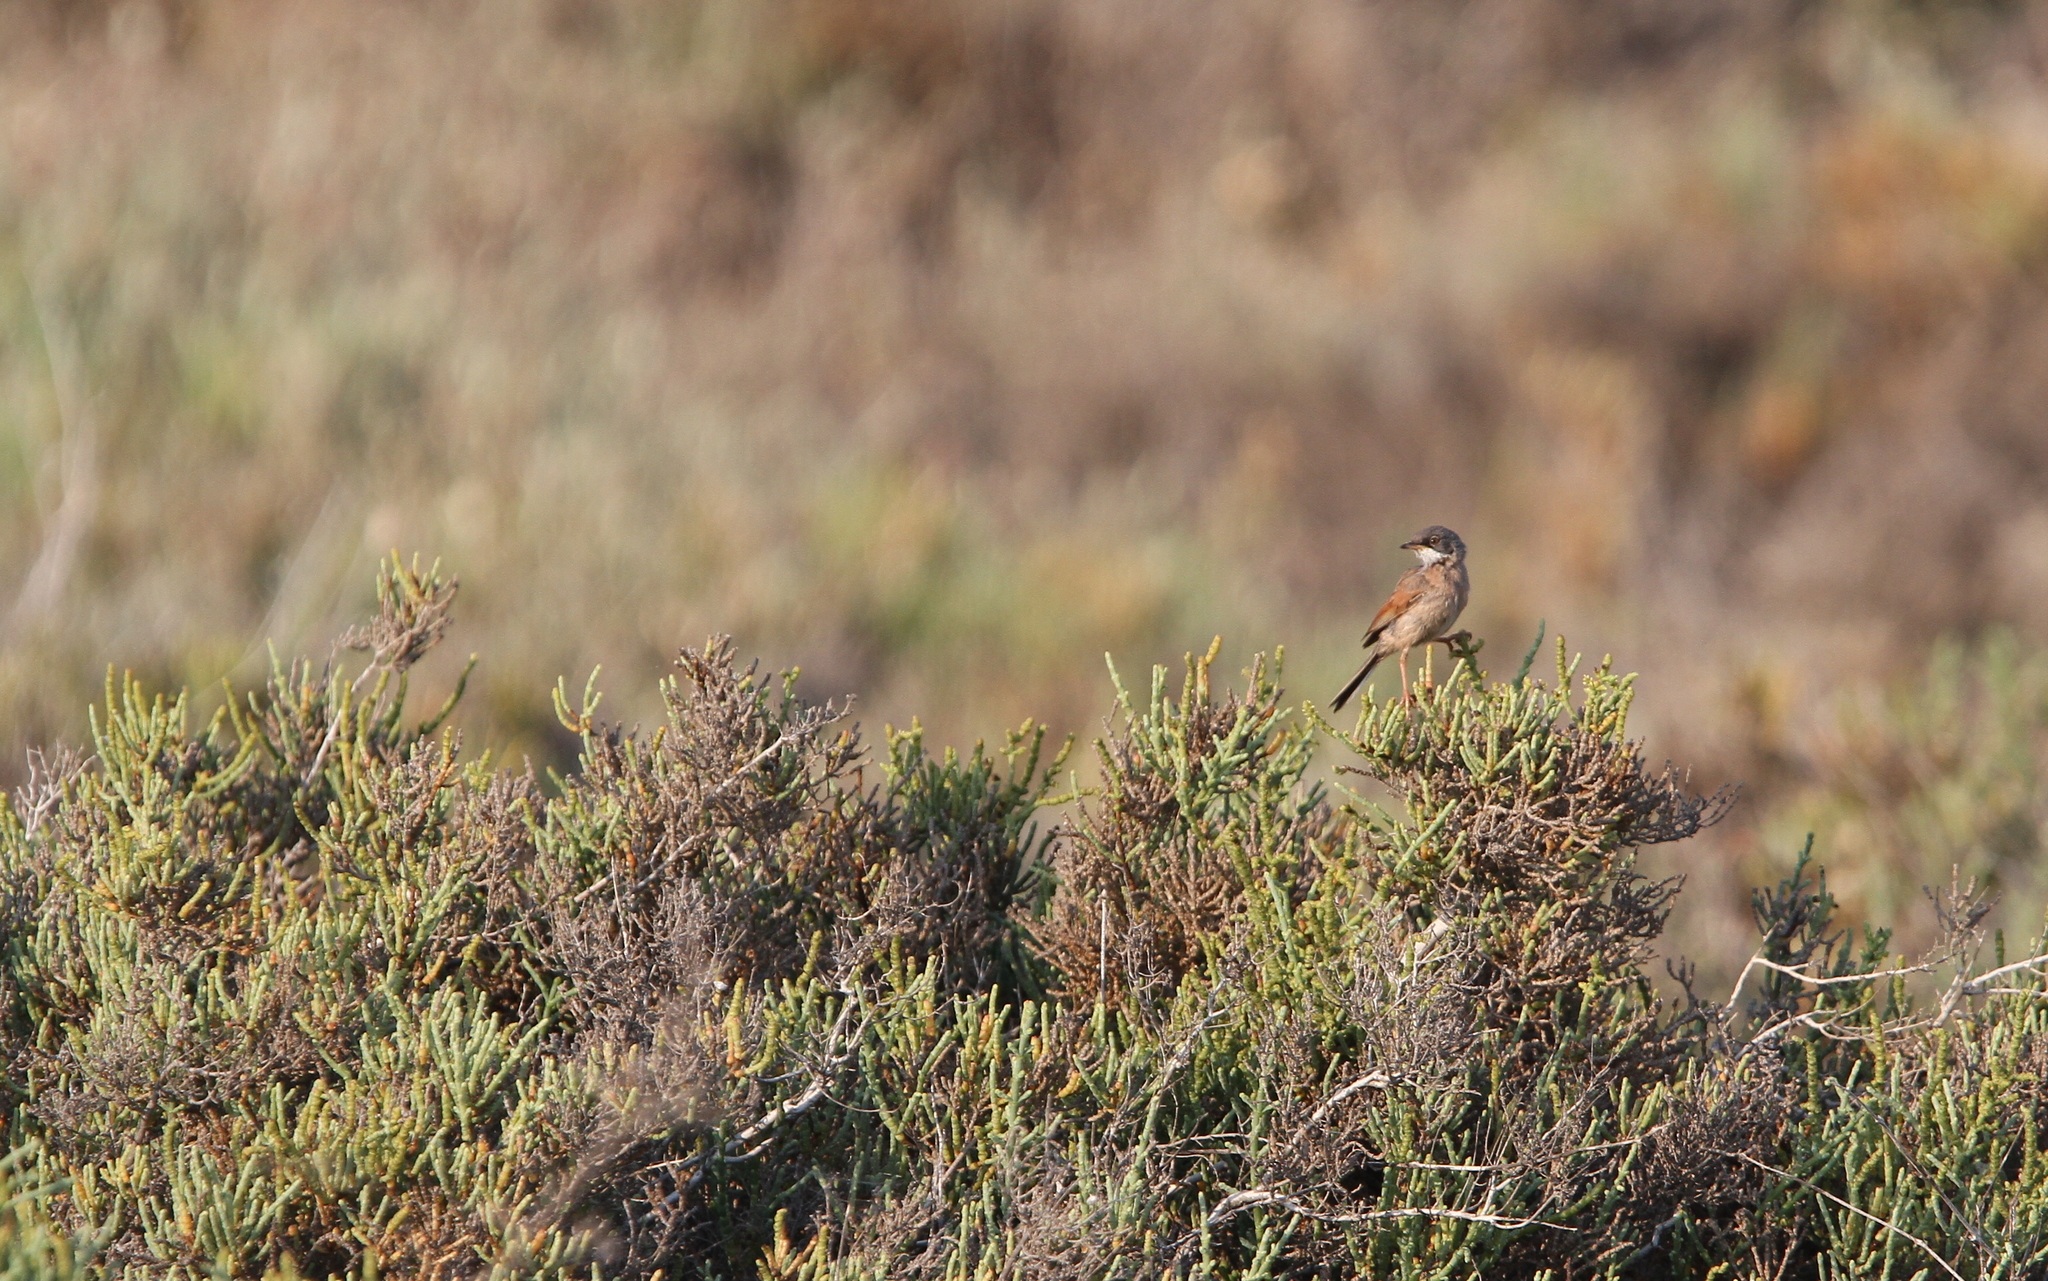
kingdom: Animalia
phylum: Chordata
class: Aves
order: Passeriformes
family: Sylviidae
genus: Sylvia
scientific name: Sylvia conspicillata
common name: Spectacled warbler
